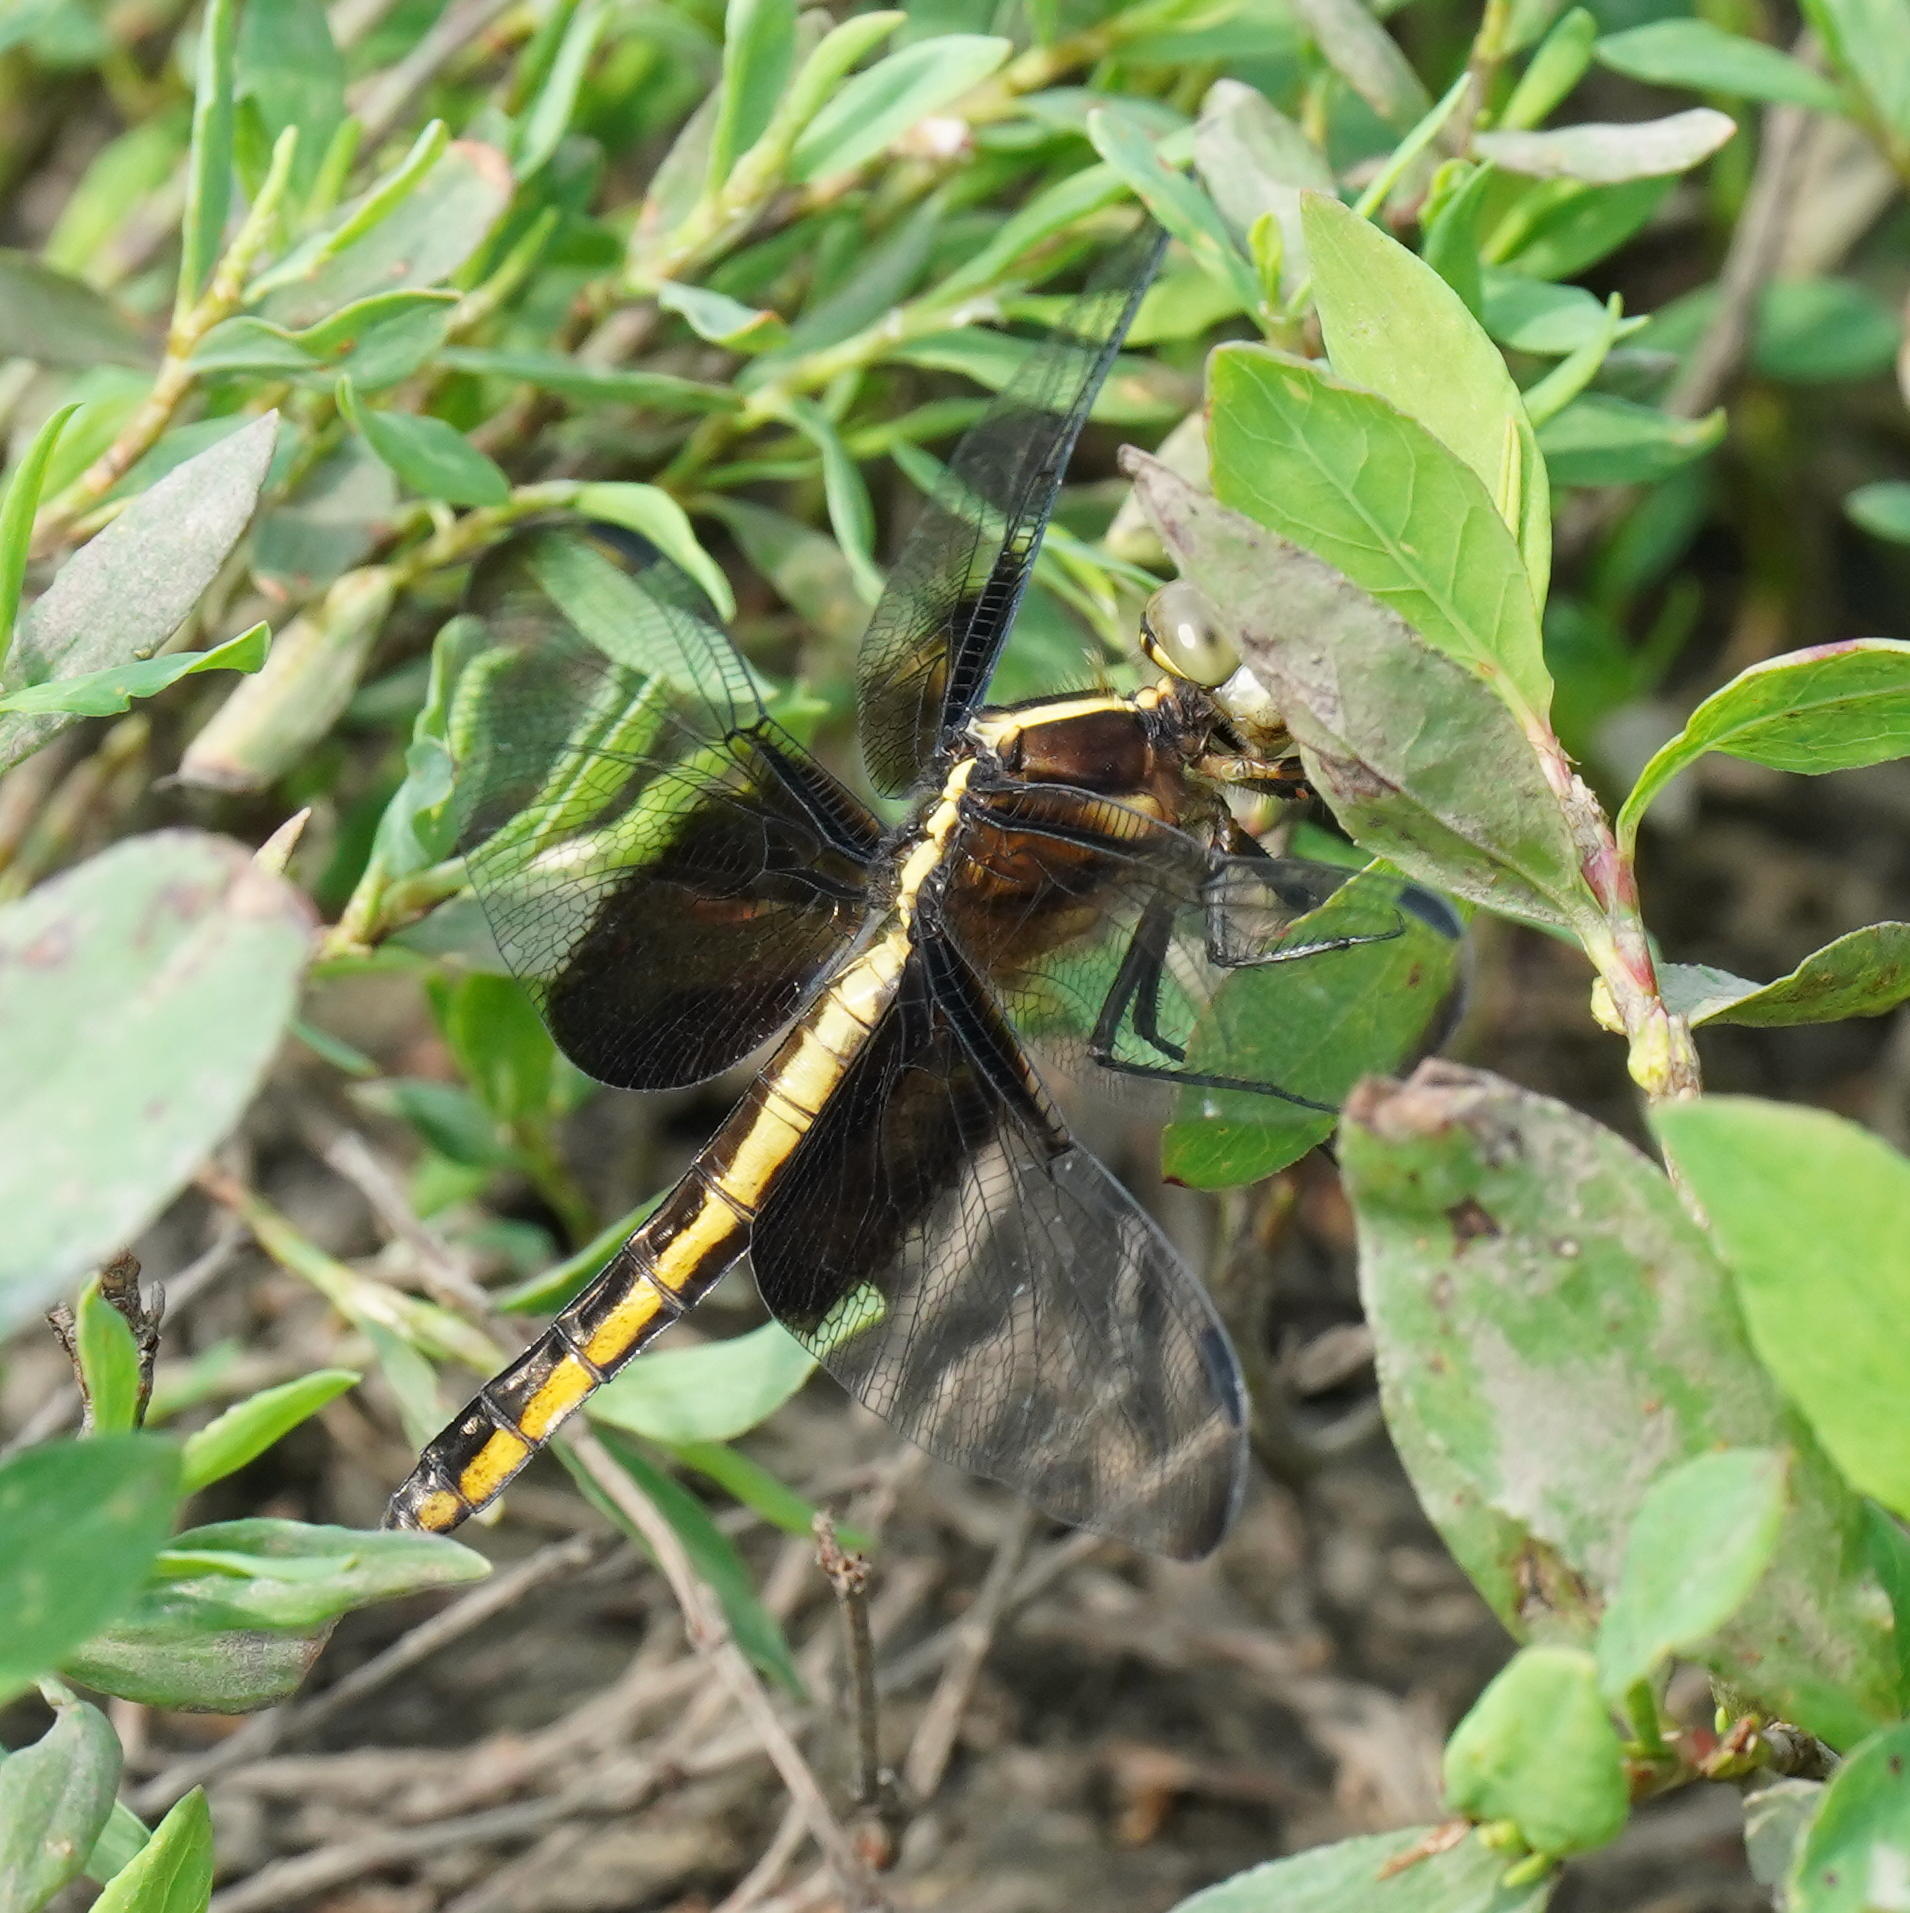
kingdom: Animalia
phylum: Arthropoda
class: Insecta
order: Odonata
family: Libellulidae
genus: Libellula
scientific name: Libellula luctuosa
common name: Widow skimmer
